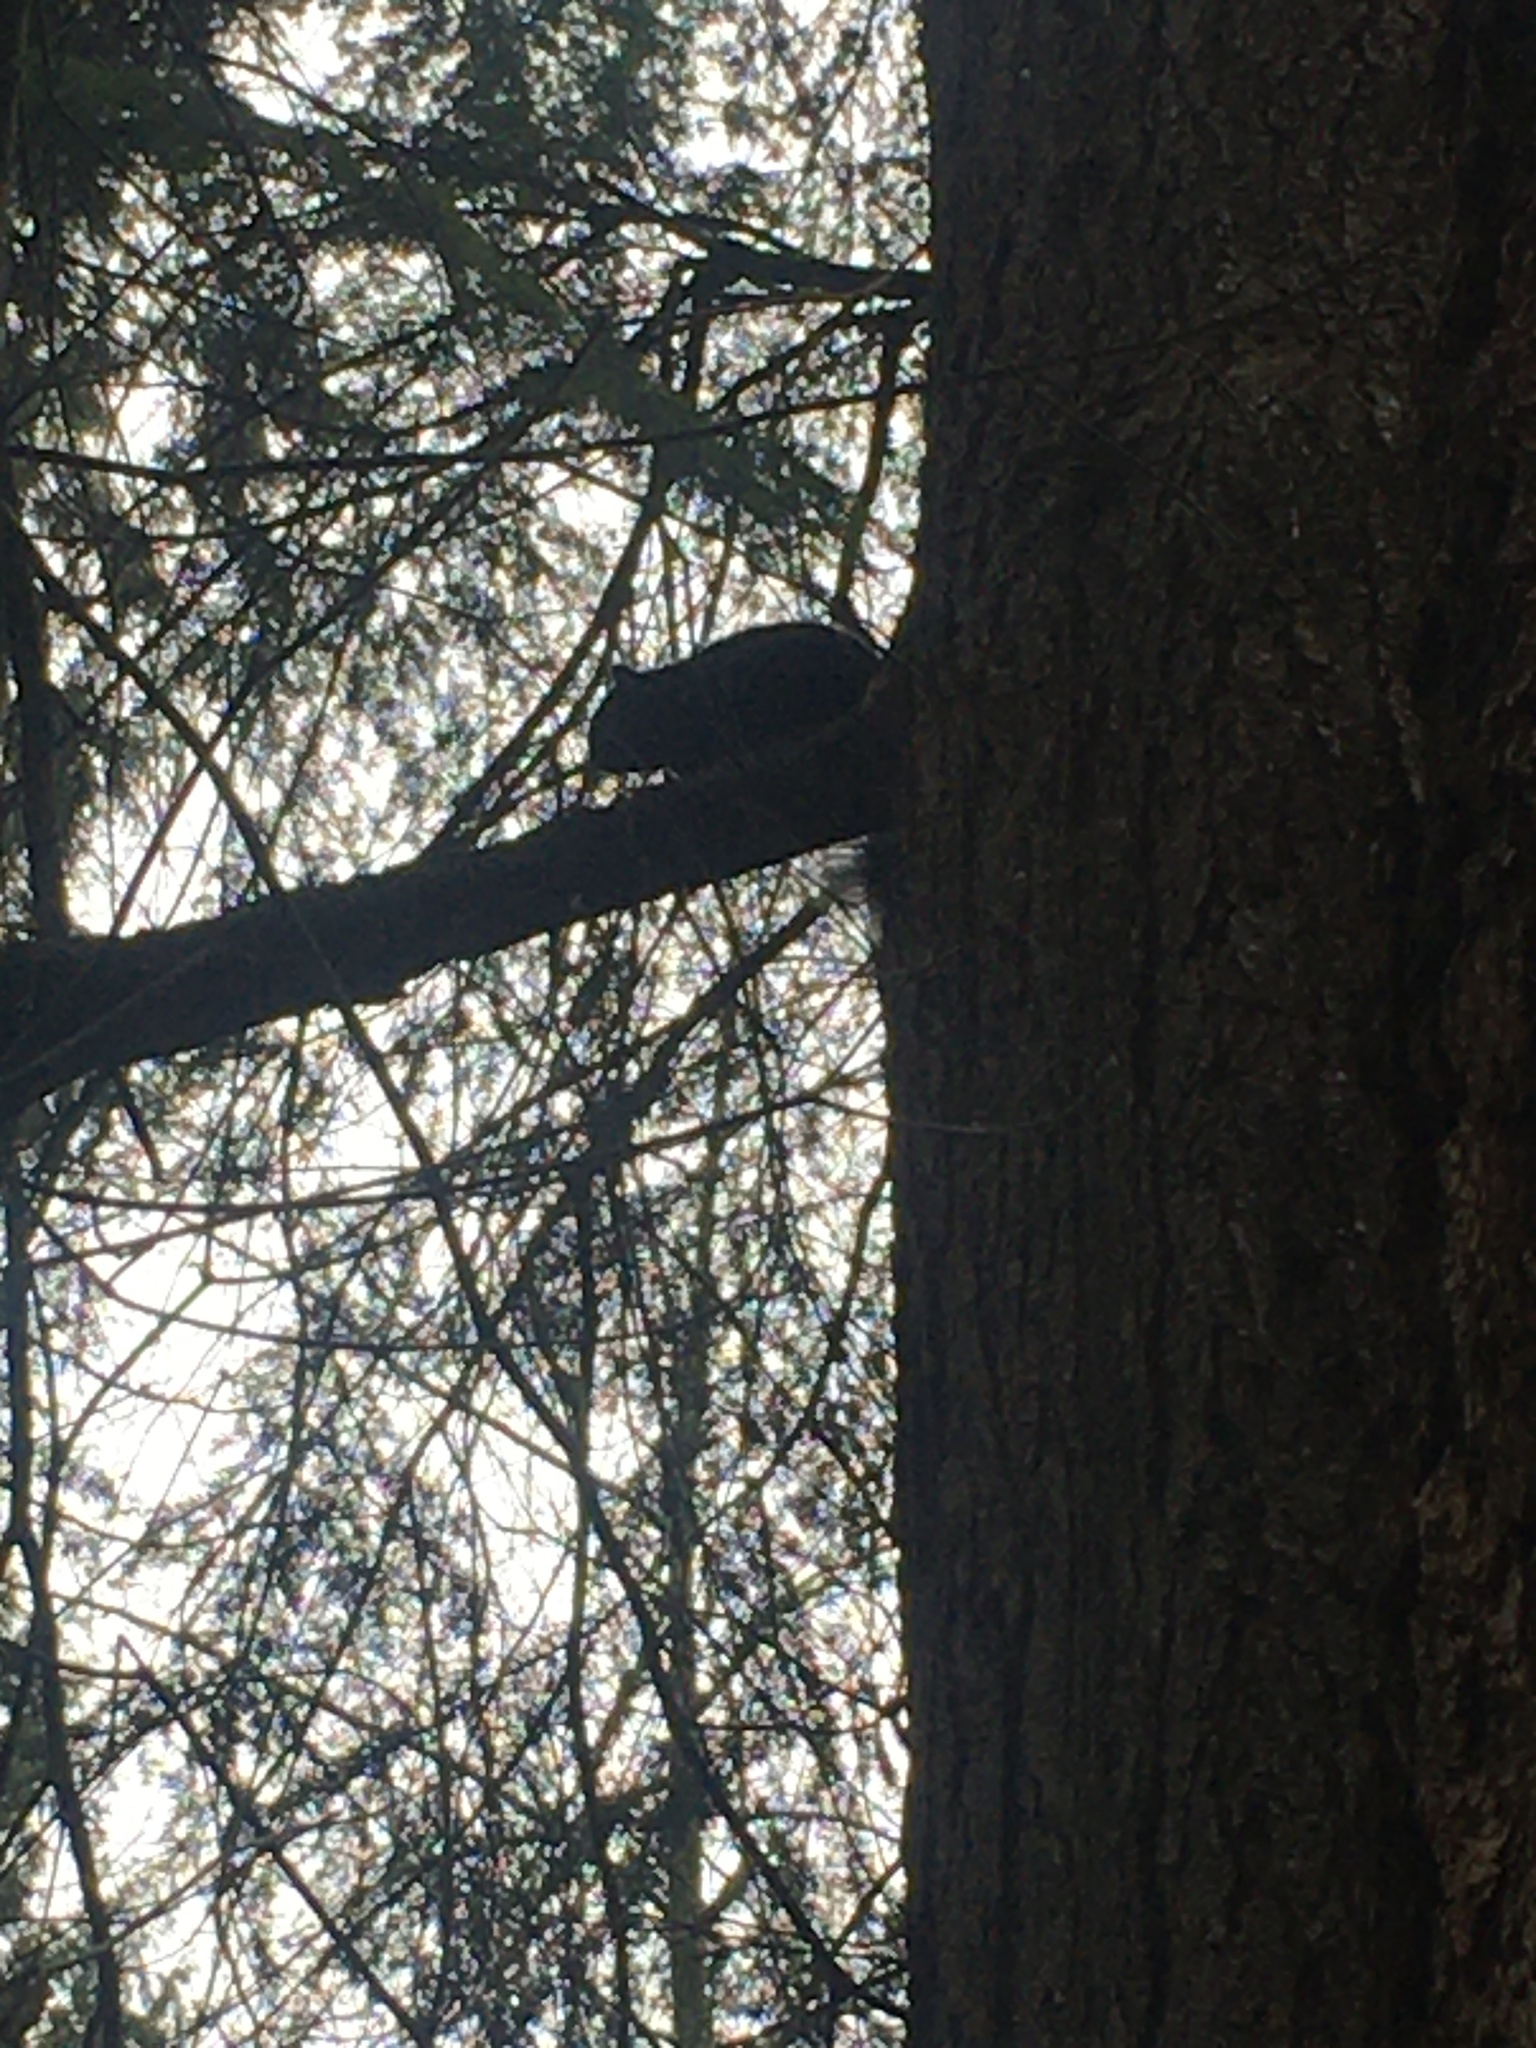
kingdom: Animalia
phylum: Chordata
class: Mammalia
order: Rodentia
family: Sciuridae
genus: Sciurus
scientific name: Sciurus carolinensis
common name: Eastern gray squirrel
